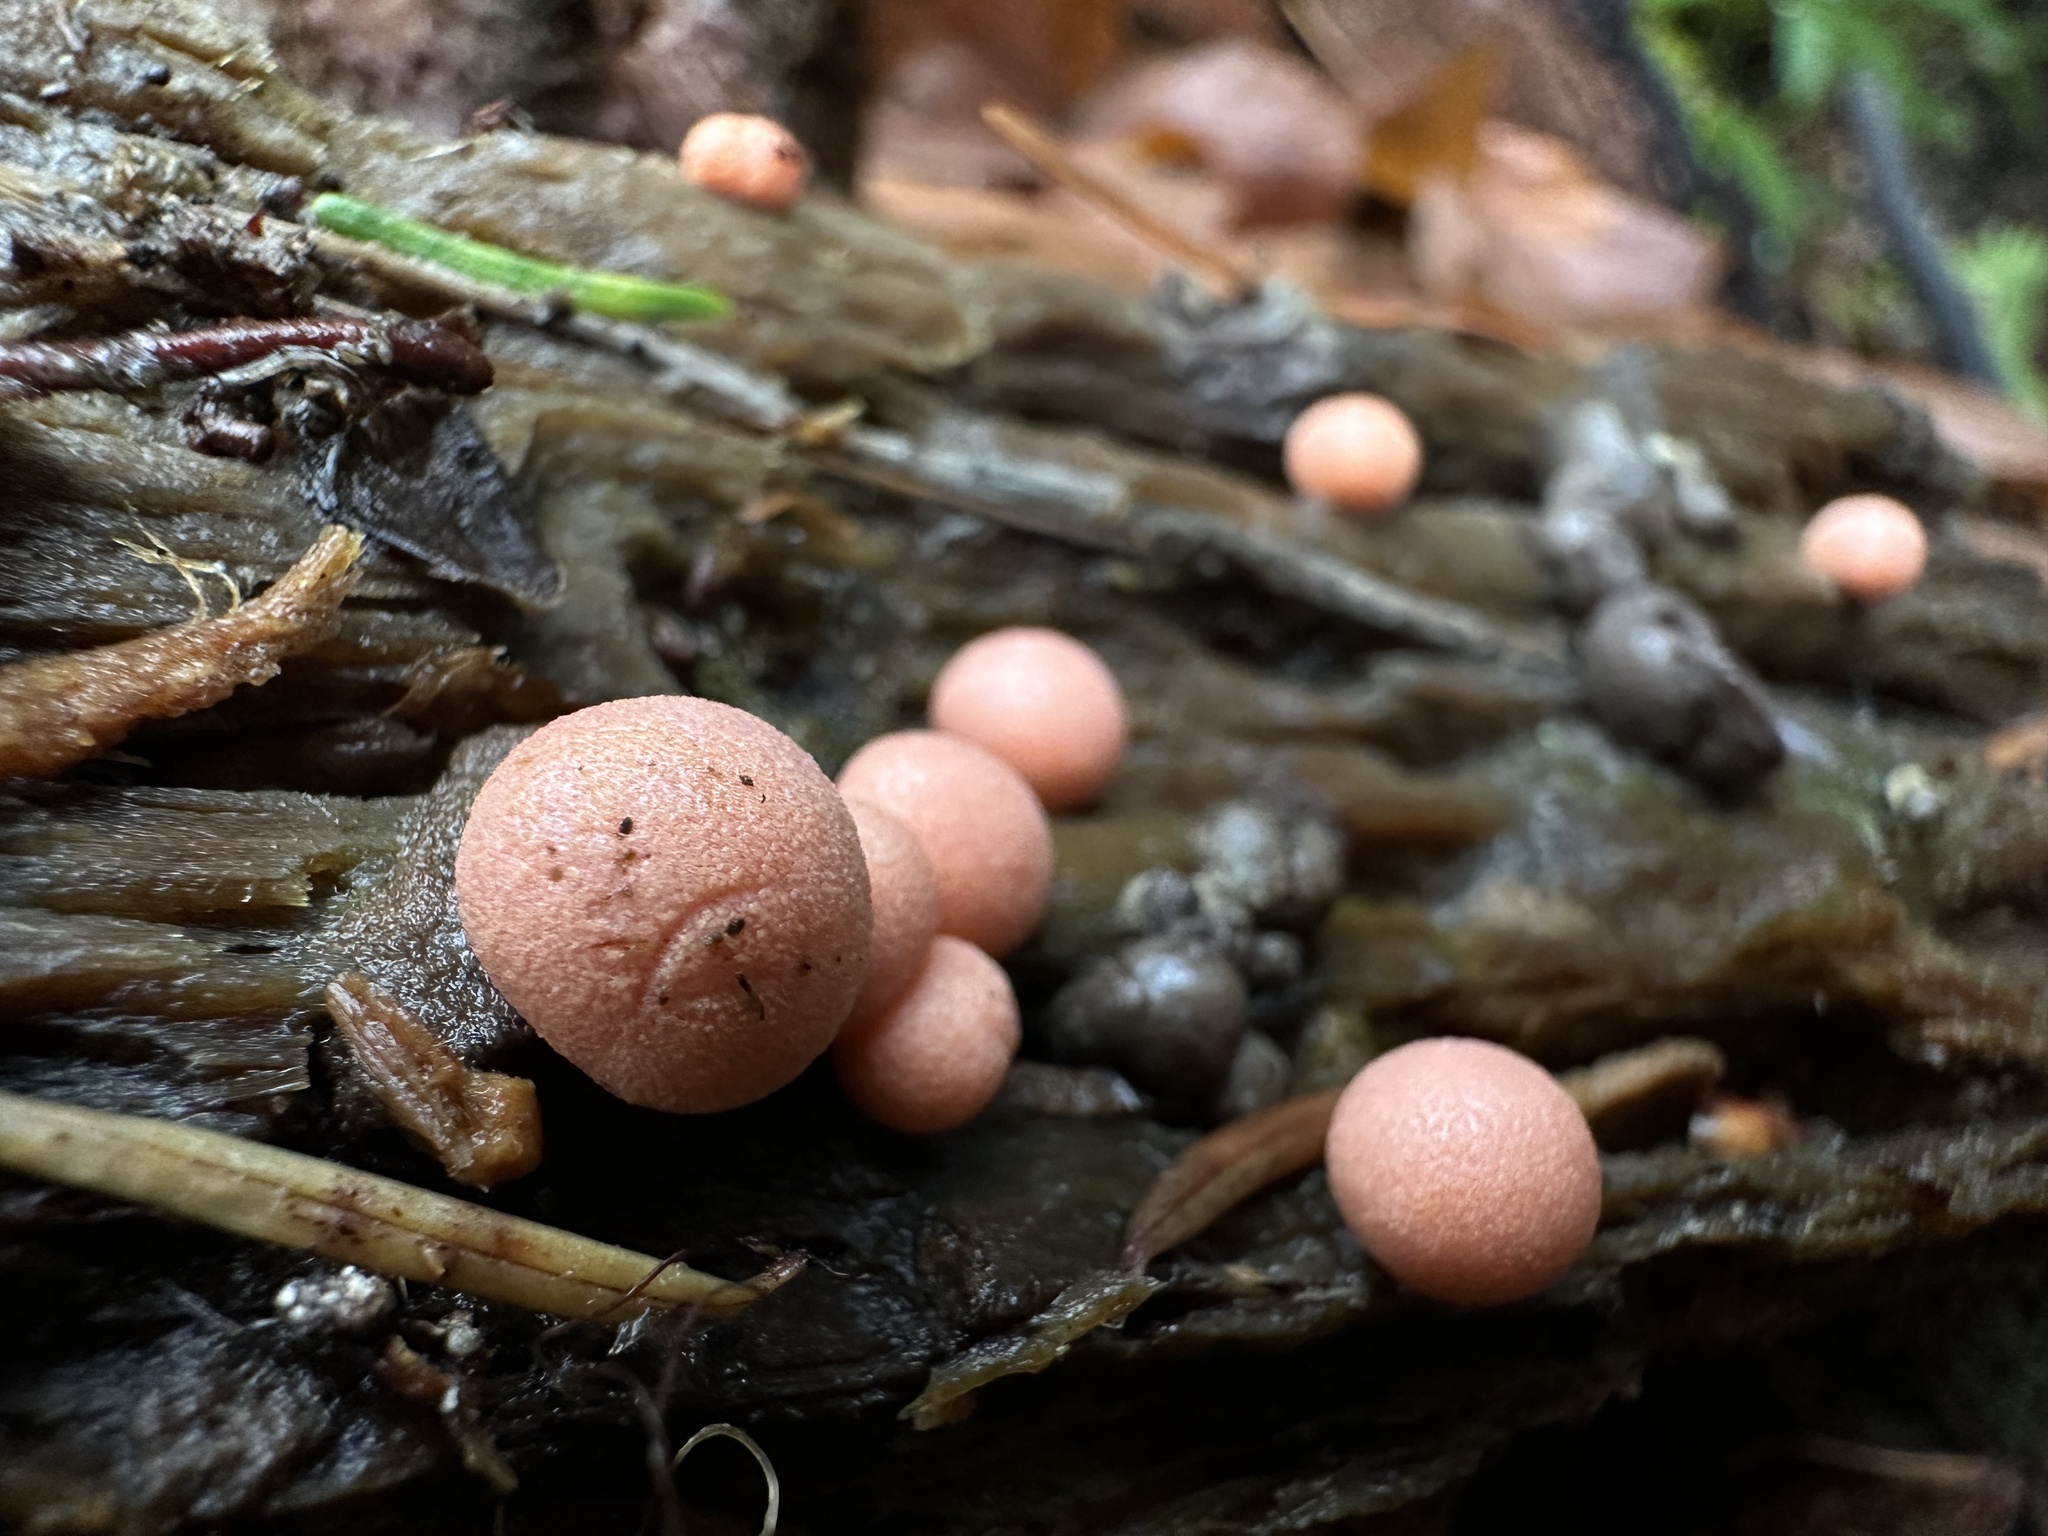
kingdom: Protozoa
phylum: Mycetozoa
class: Myxomycetes
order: Cribrariales
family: Tubiferaceae
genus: Lycogala
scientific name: Lycogala epidendrum
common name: Wolf's milk
